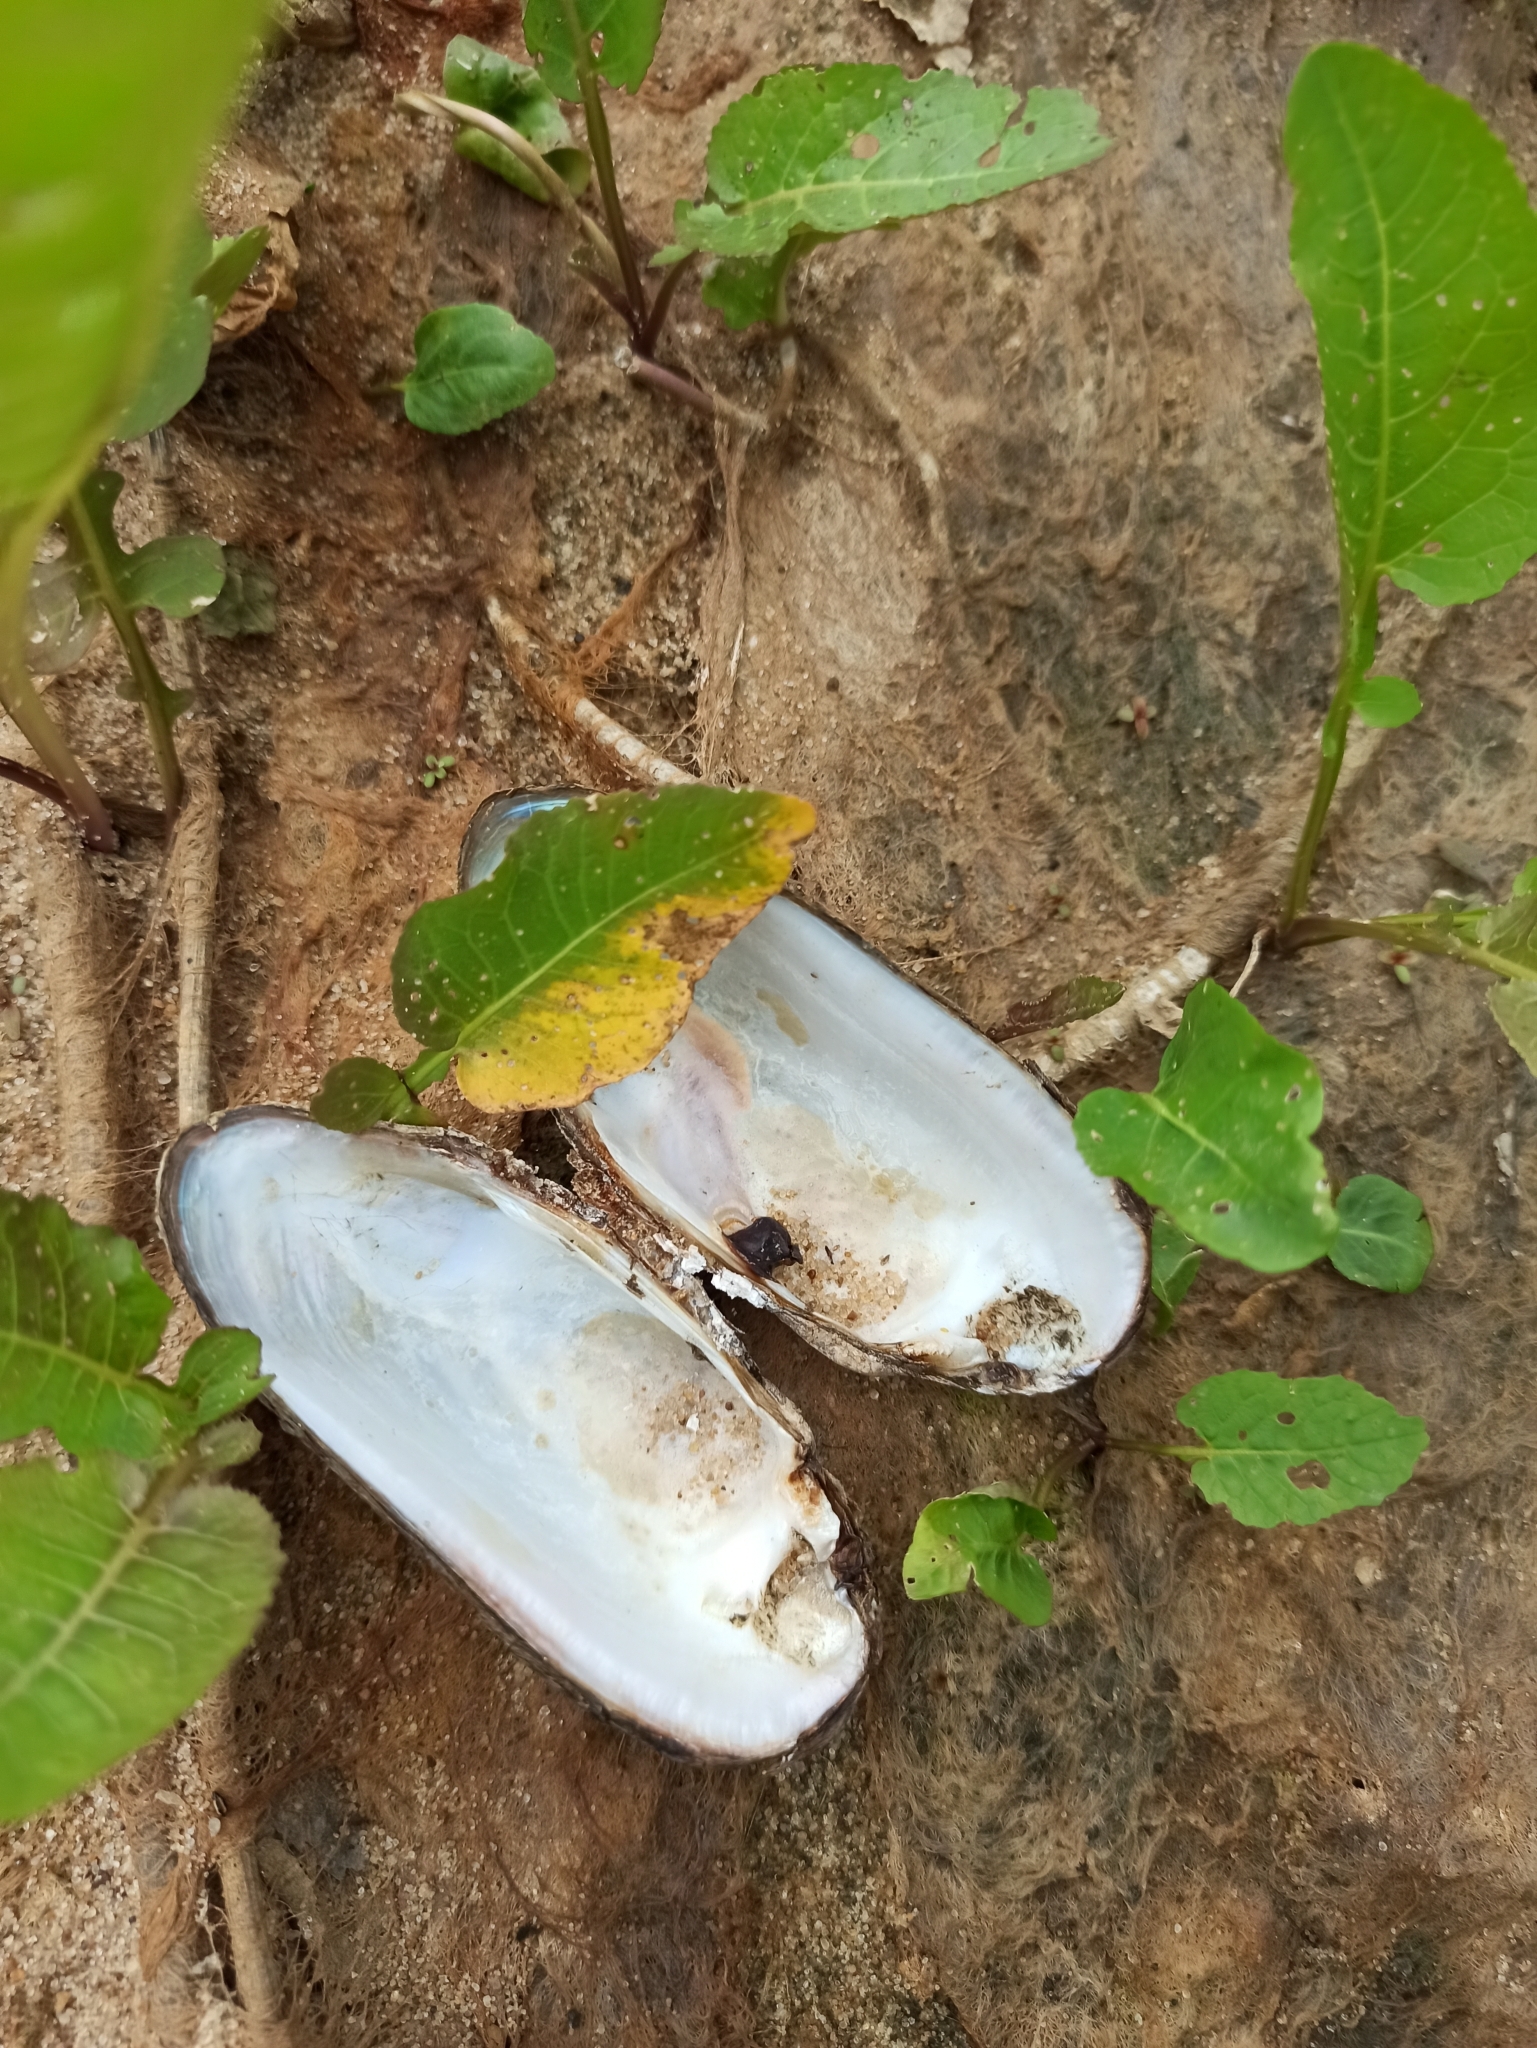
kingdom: Animalia
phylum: Mollusca
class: Bivalvia
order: Unionida
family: Unionidae
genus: Unio
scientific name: Unio tumidus
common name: Swollen river mussel
